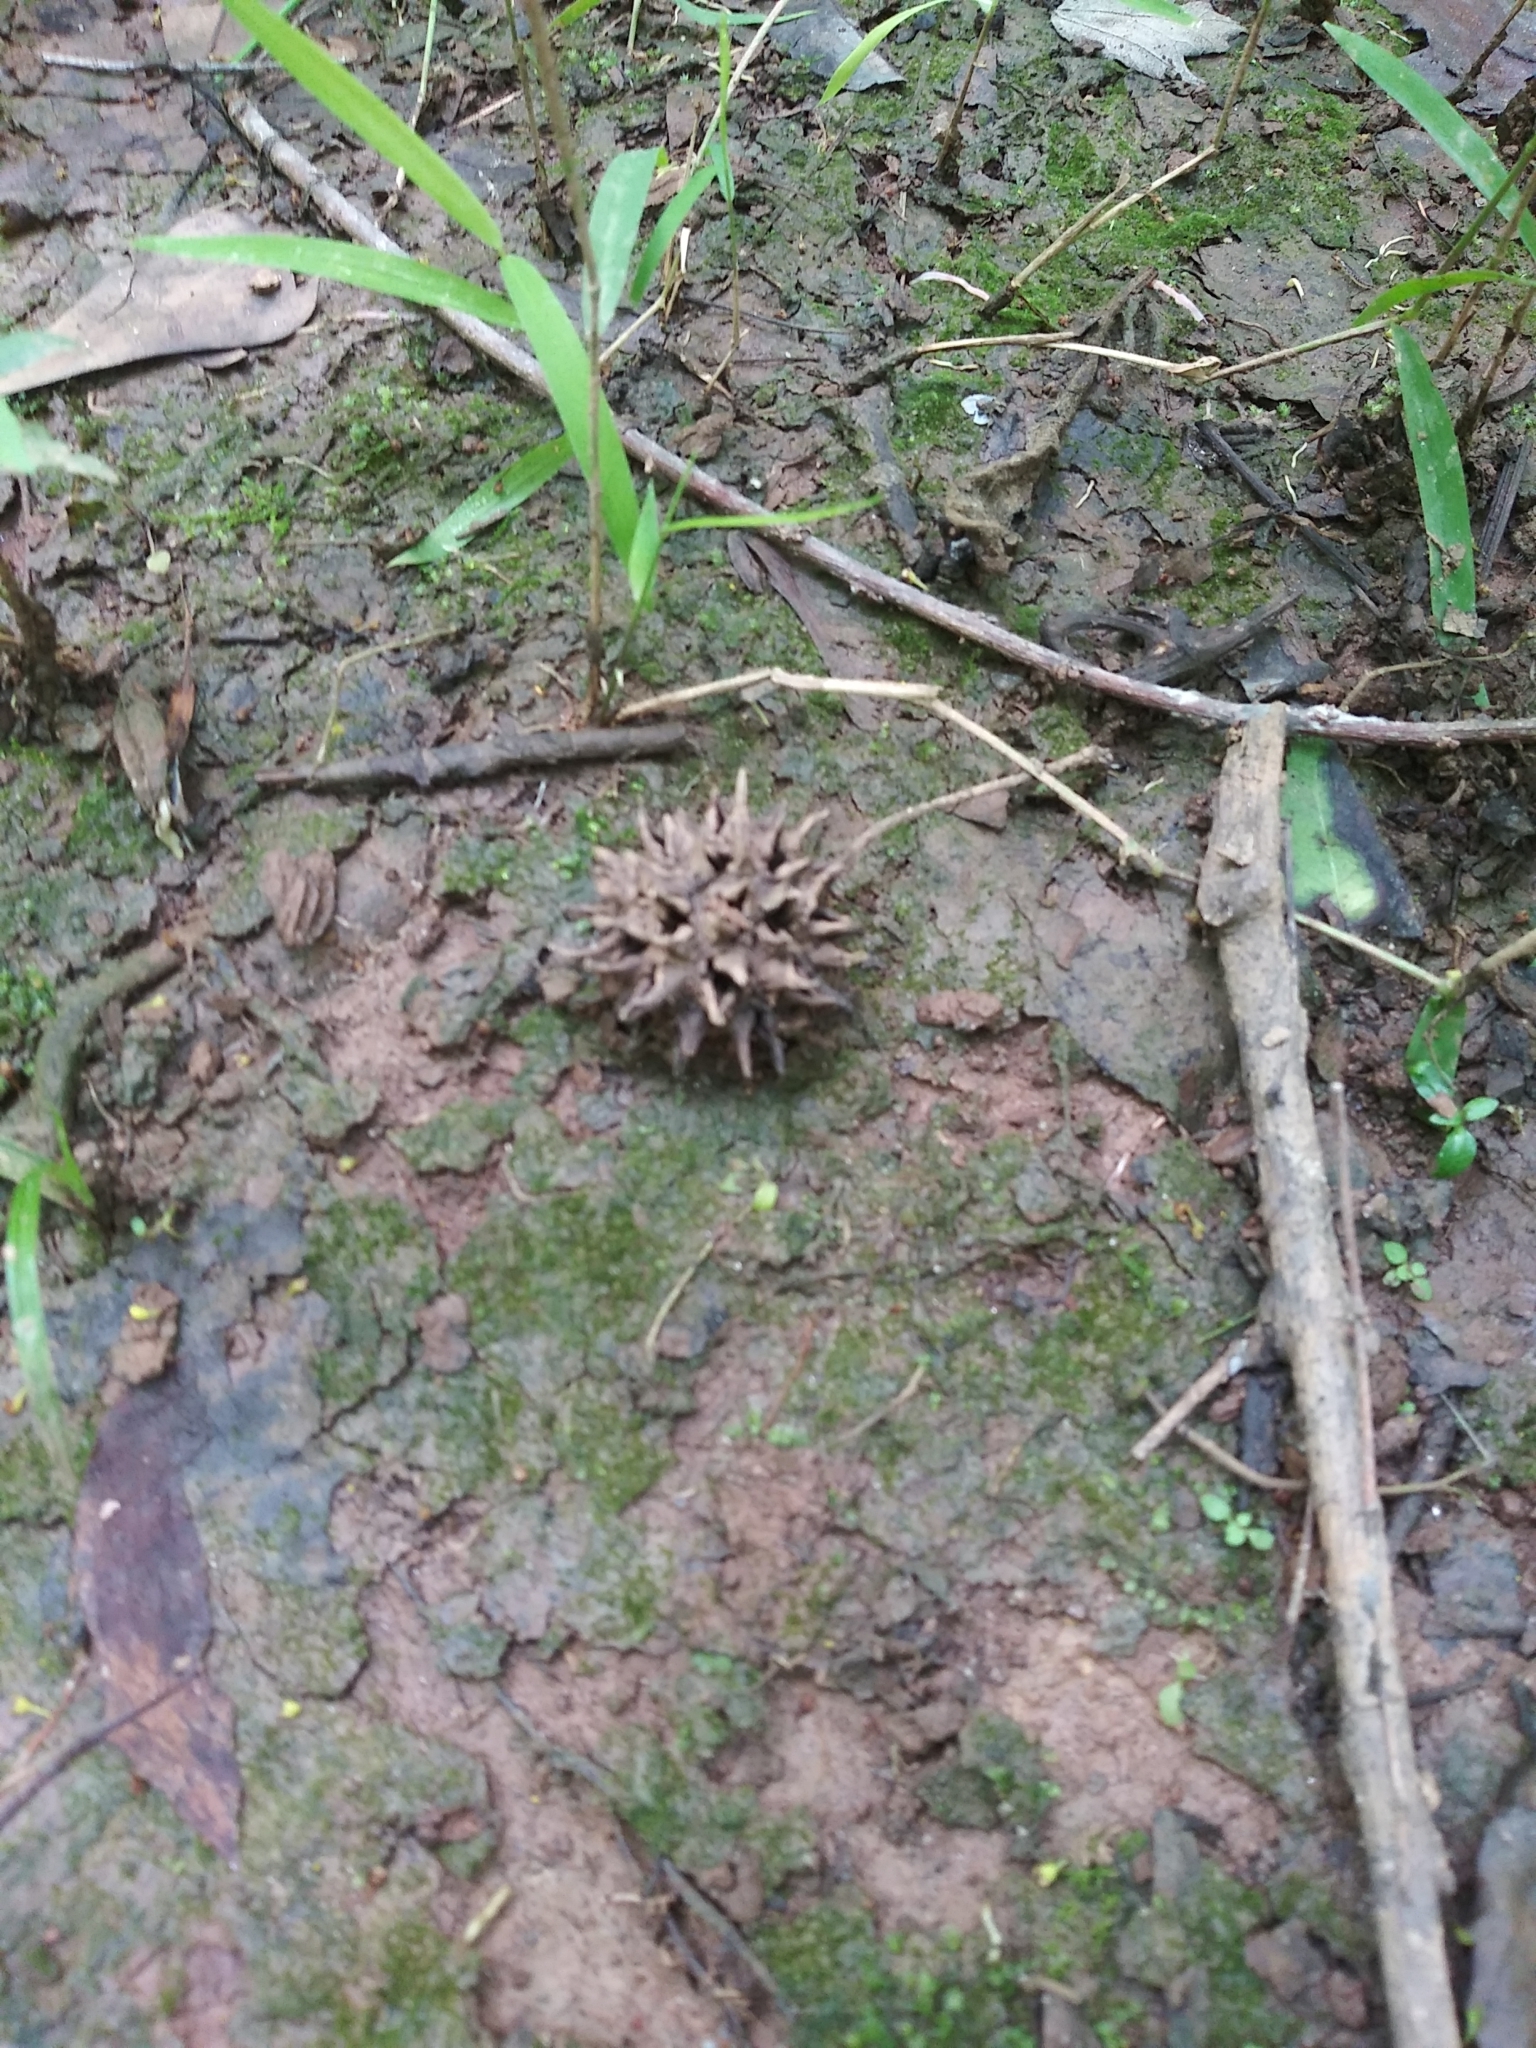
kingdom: Plantae
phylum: Tracheophyta
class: Magnoliopsida
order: Saxifragales
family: Altingiaceae
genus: Liquidambar
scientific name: Liquidambar styraciflua
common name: Sweet gum
